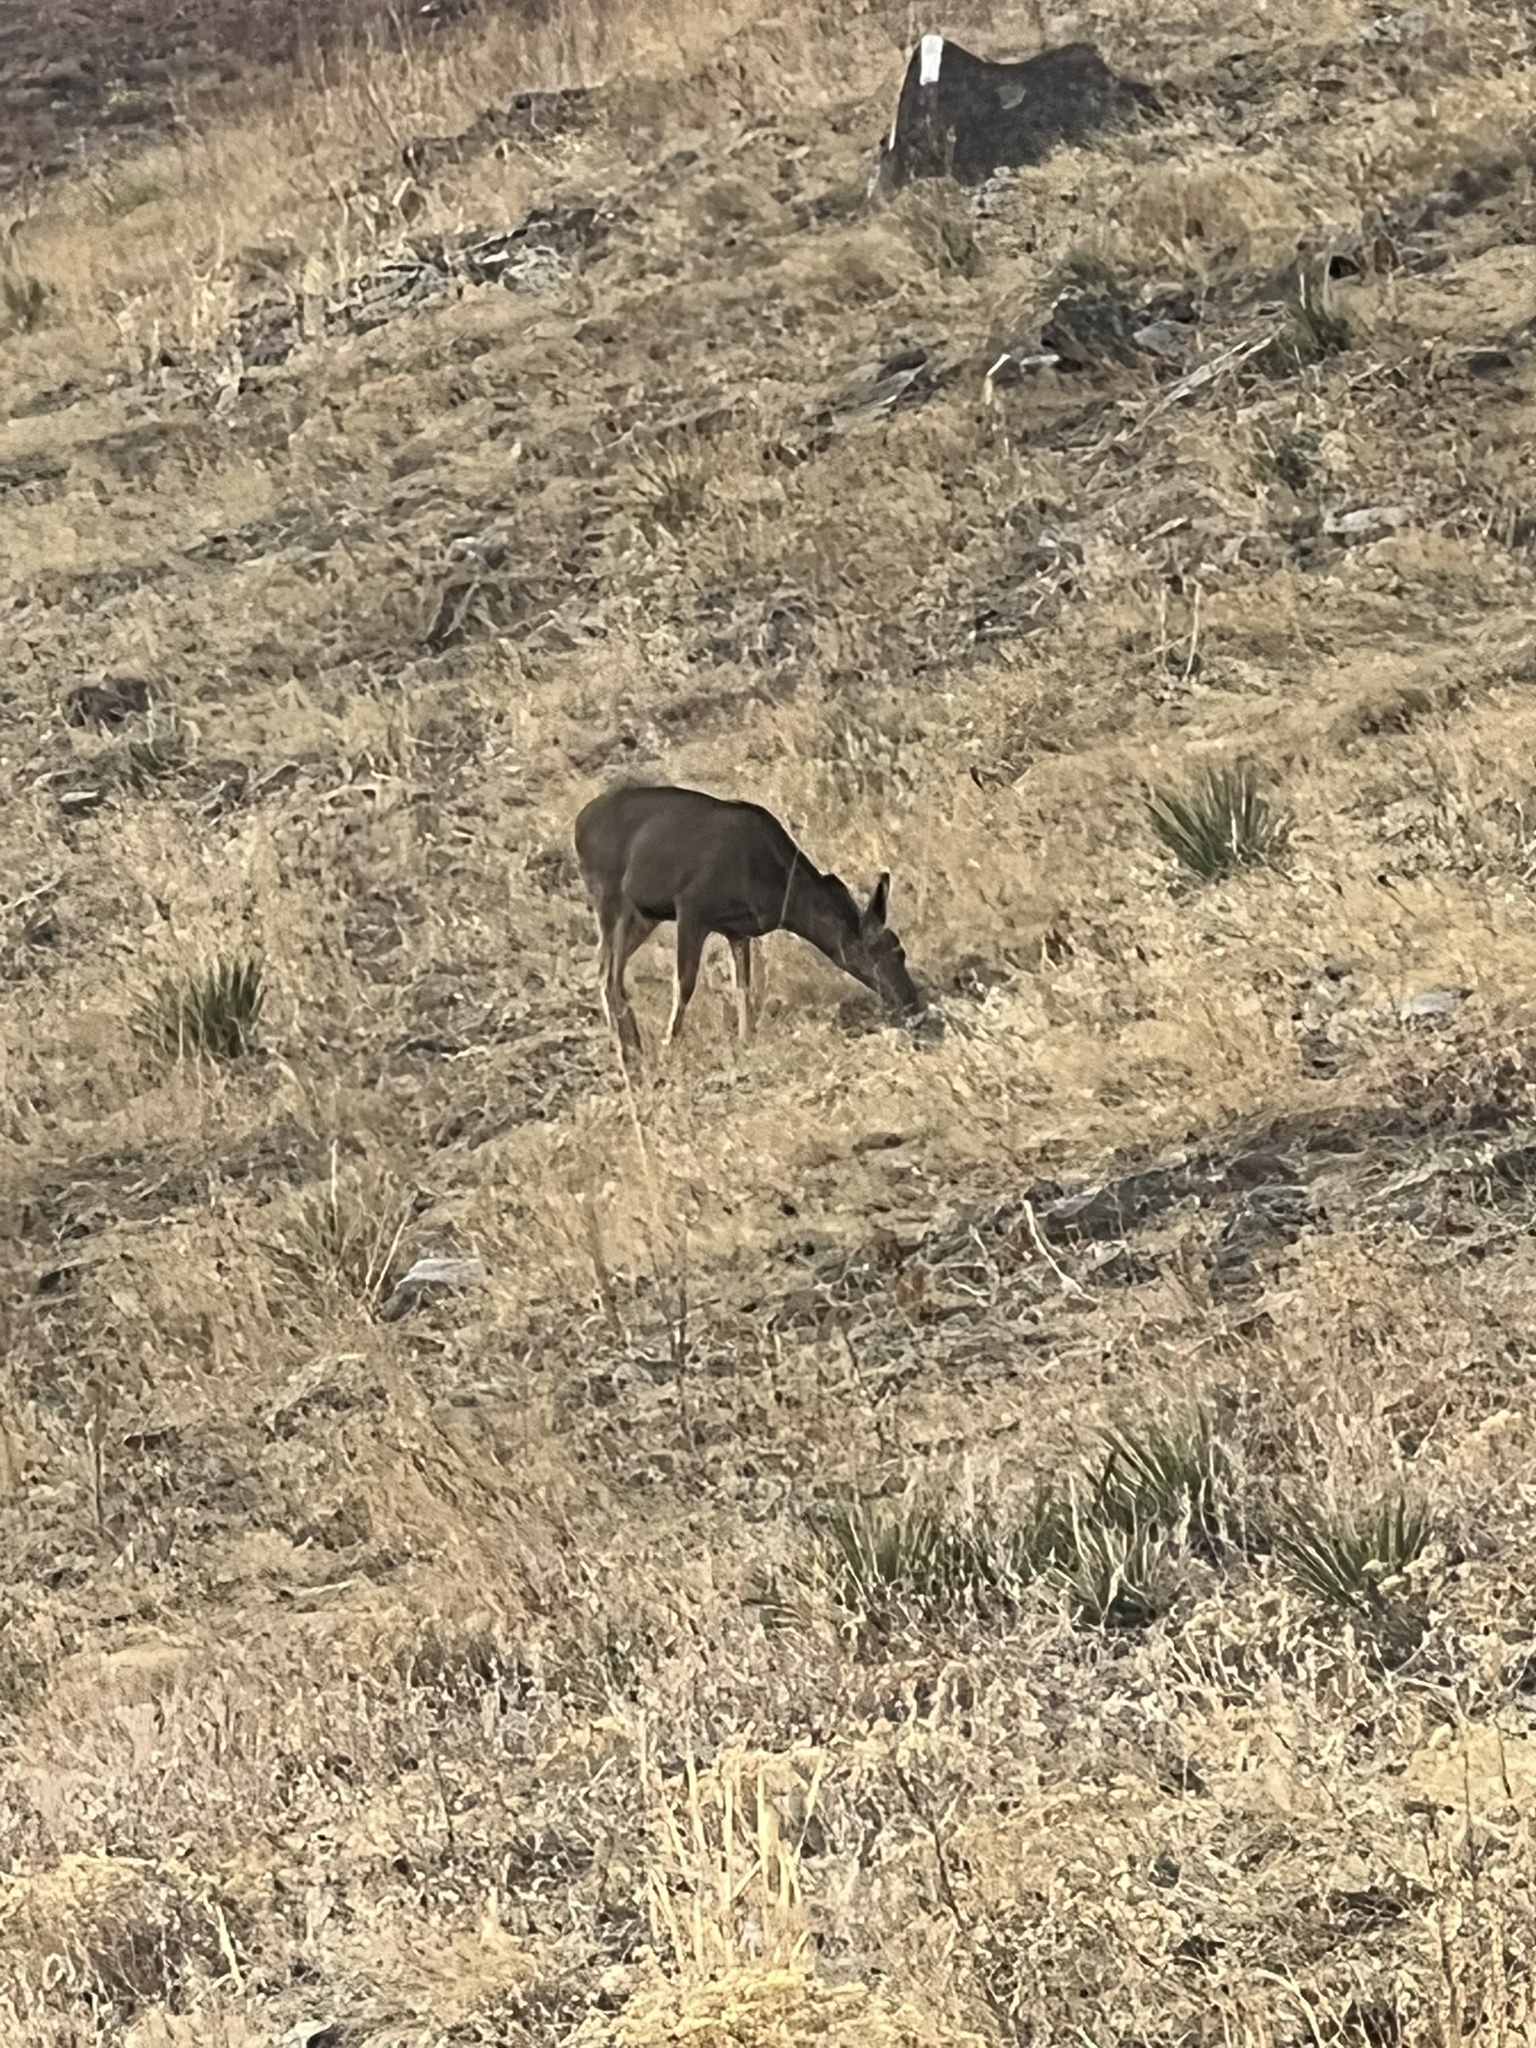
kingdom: Animalia
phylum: Chordata
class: Mammalia
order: Artiodactyla
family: Cervidae
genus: Odocoileus
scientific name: Odocoileus hemionus
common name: Mule deer
